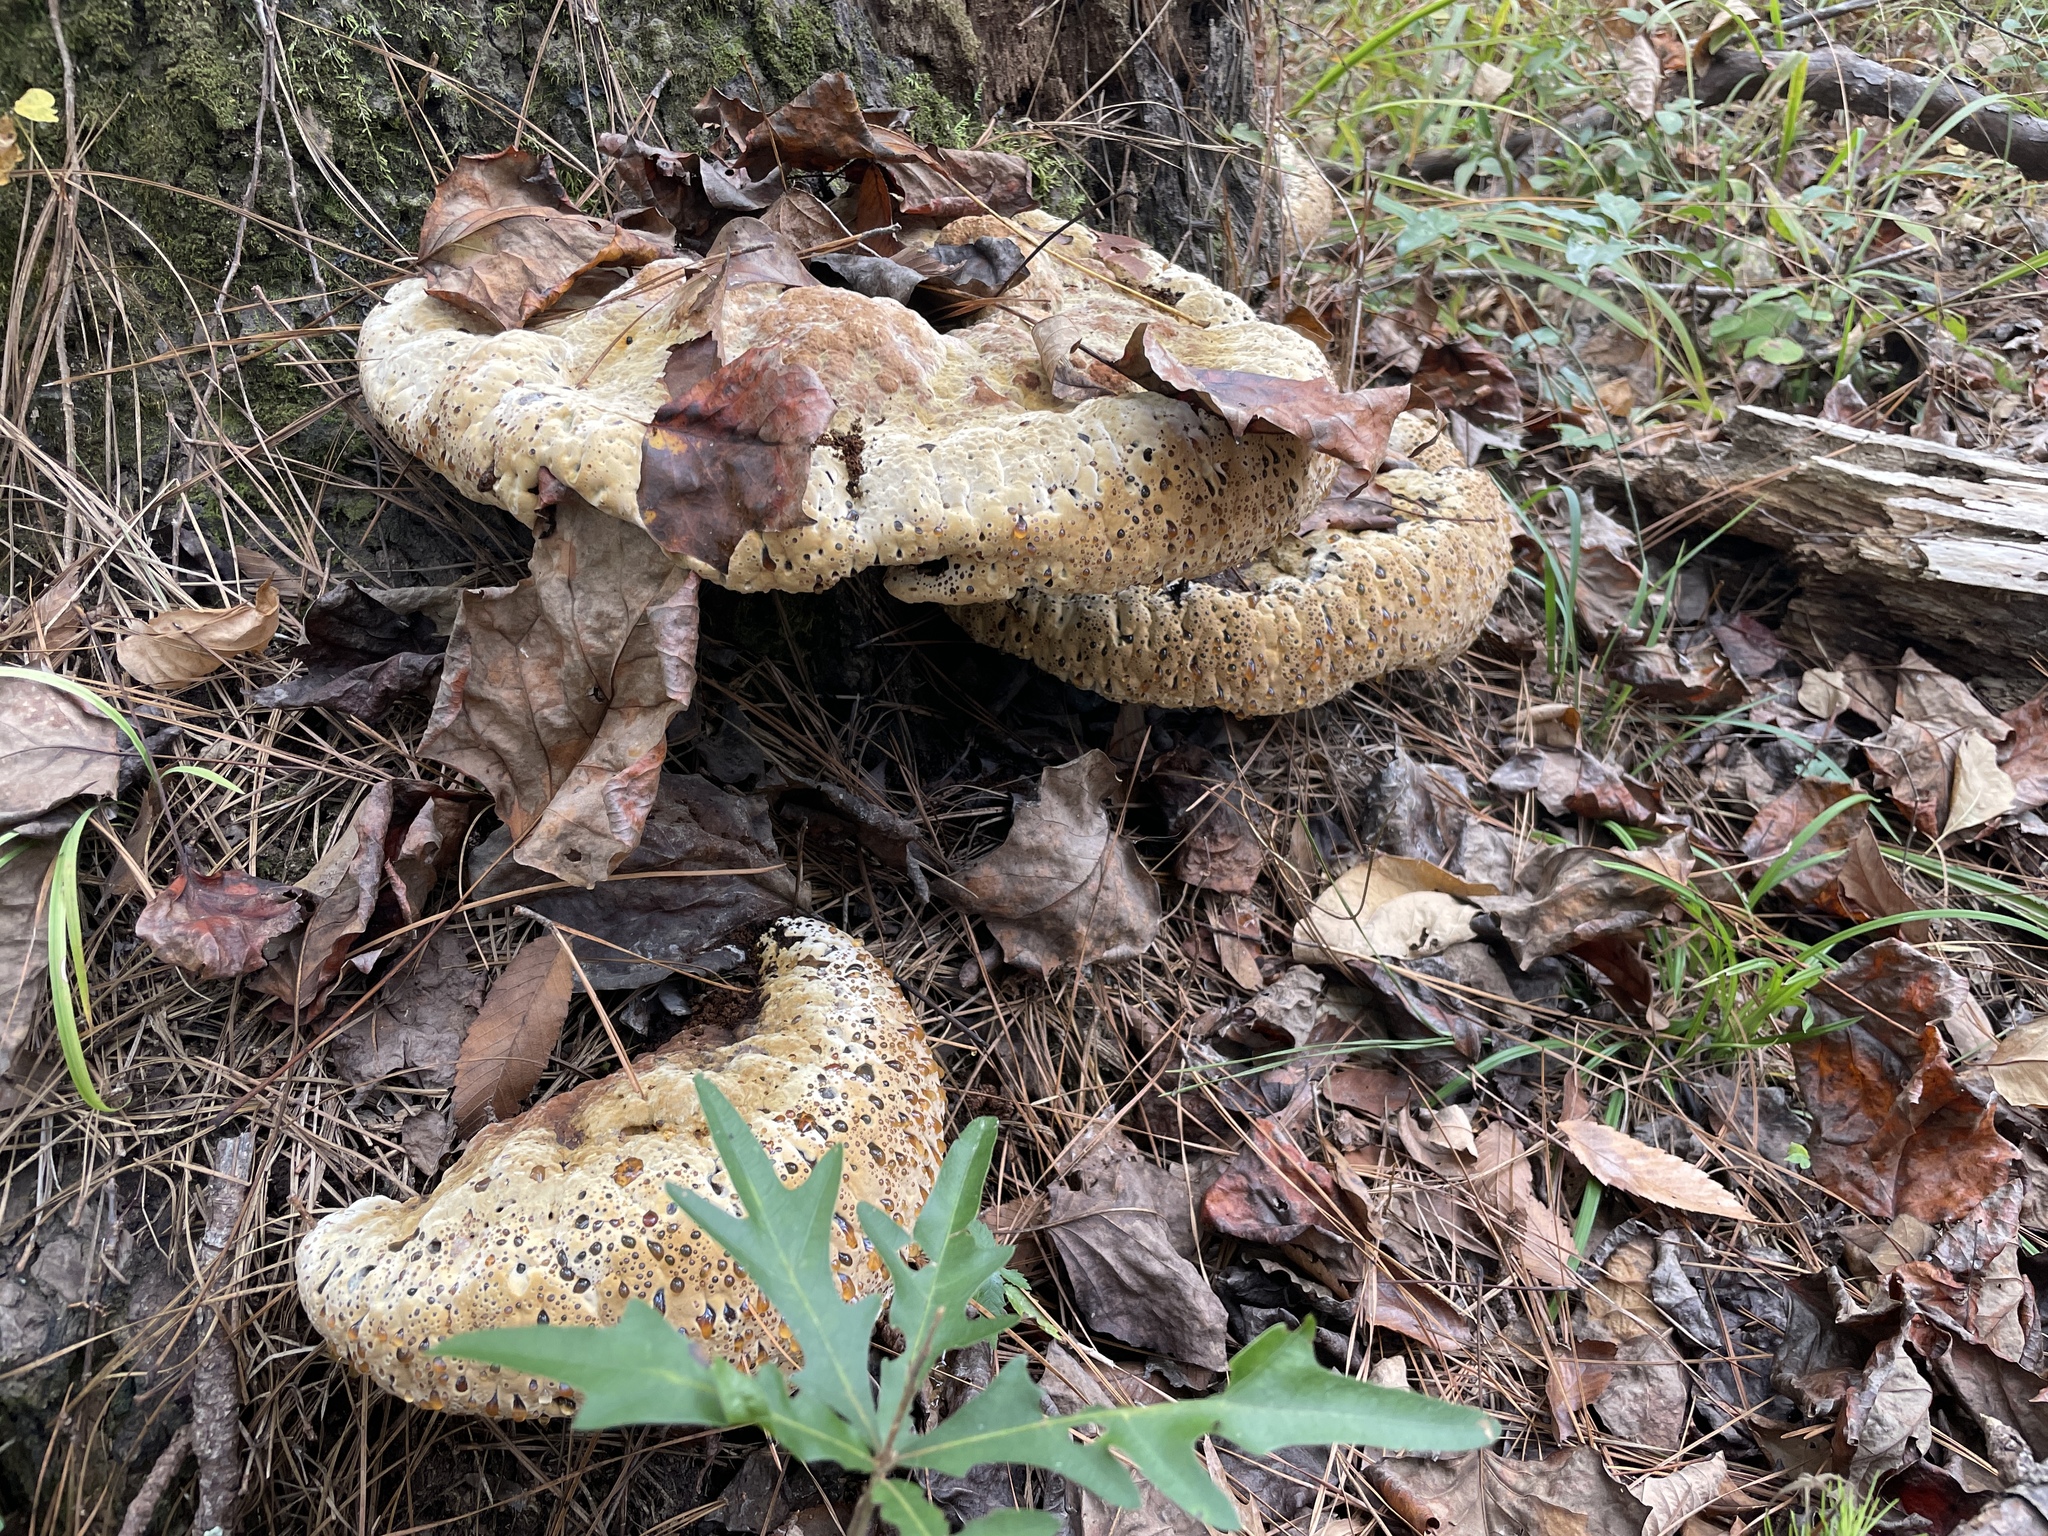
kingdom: Fungi
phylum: Basidiomycota
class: Agaricomycetes
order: Hymenochaetales
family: Hymenochaetaceae
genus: Pseudoinonotus
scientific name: Pseudoinonotus dryadeus
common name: Oak bracket
